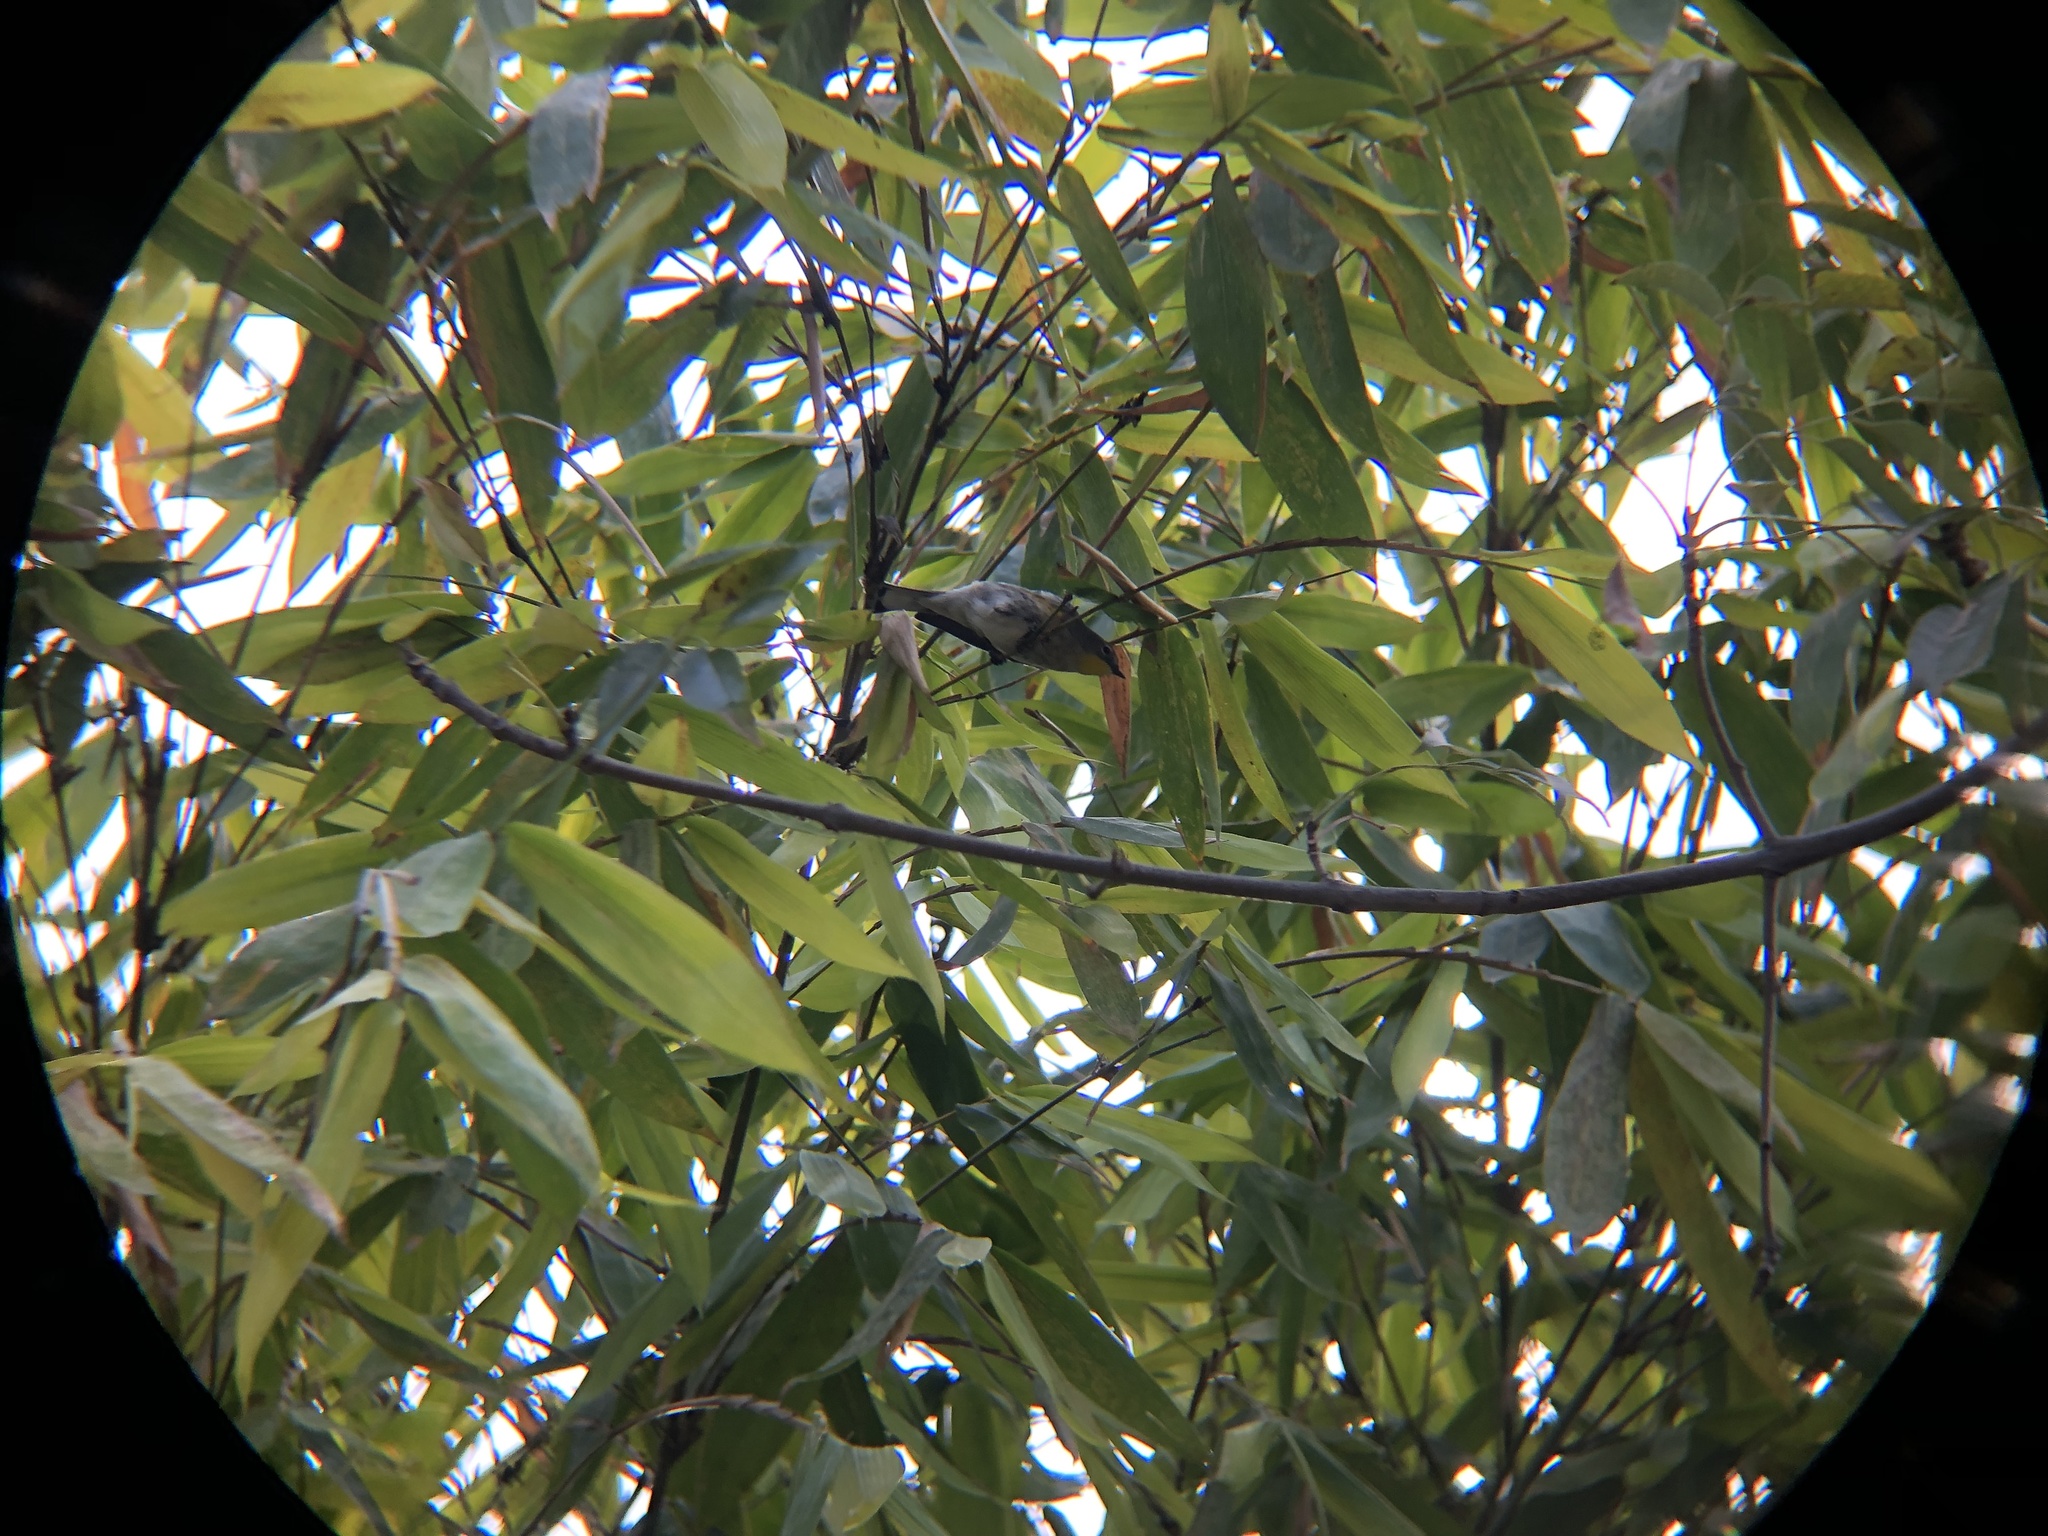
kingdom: Animalia
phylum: Chordata
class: Aves
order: Passeriformes
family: Parulidae
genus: Setophaga
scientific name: Setophaga coronata
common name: Myrtle warbler
